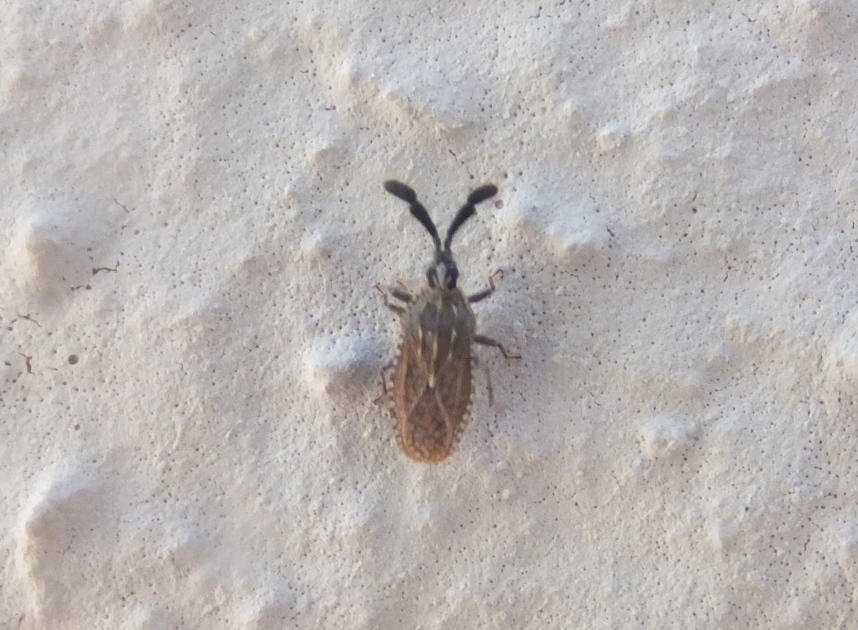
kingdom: Animalia
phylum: Arthropoda
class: Insecta
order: Hemiptera
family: Tingidae
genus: Copium
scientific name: Copium clavicorne
